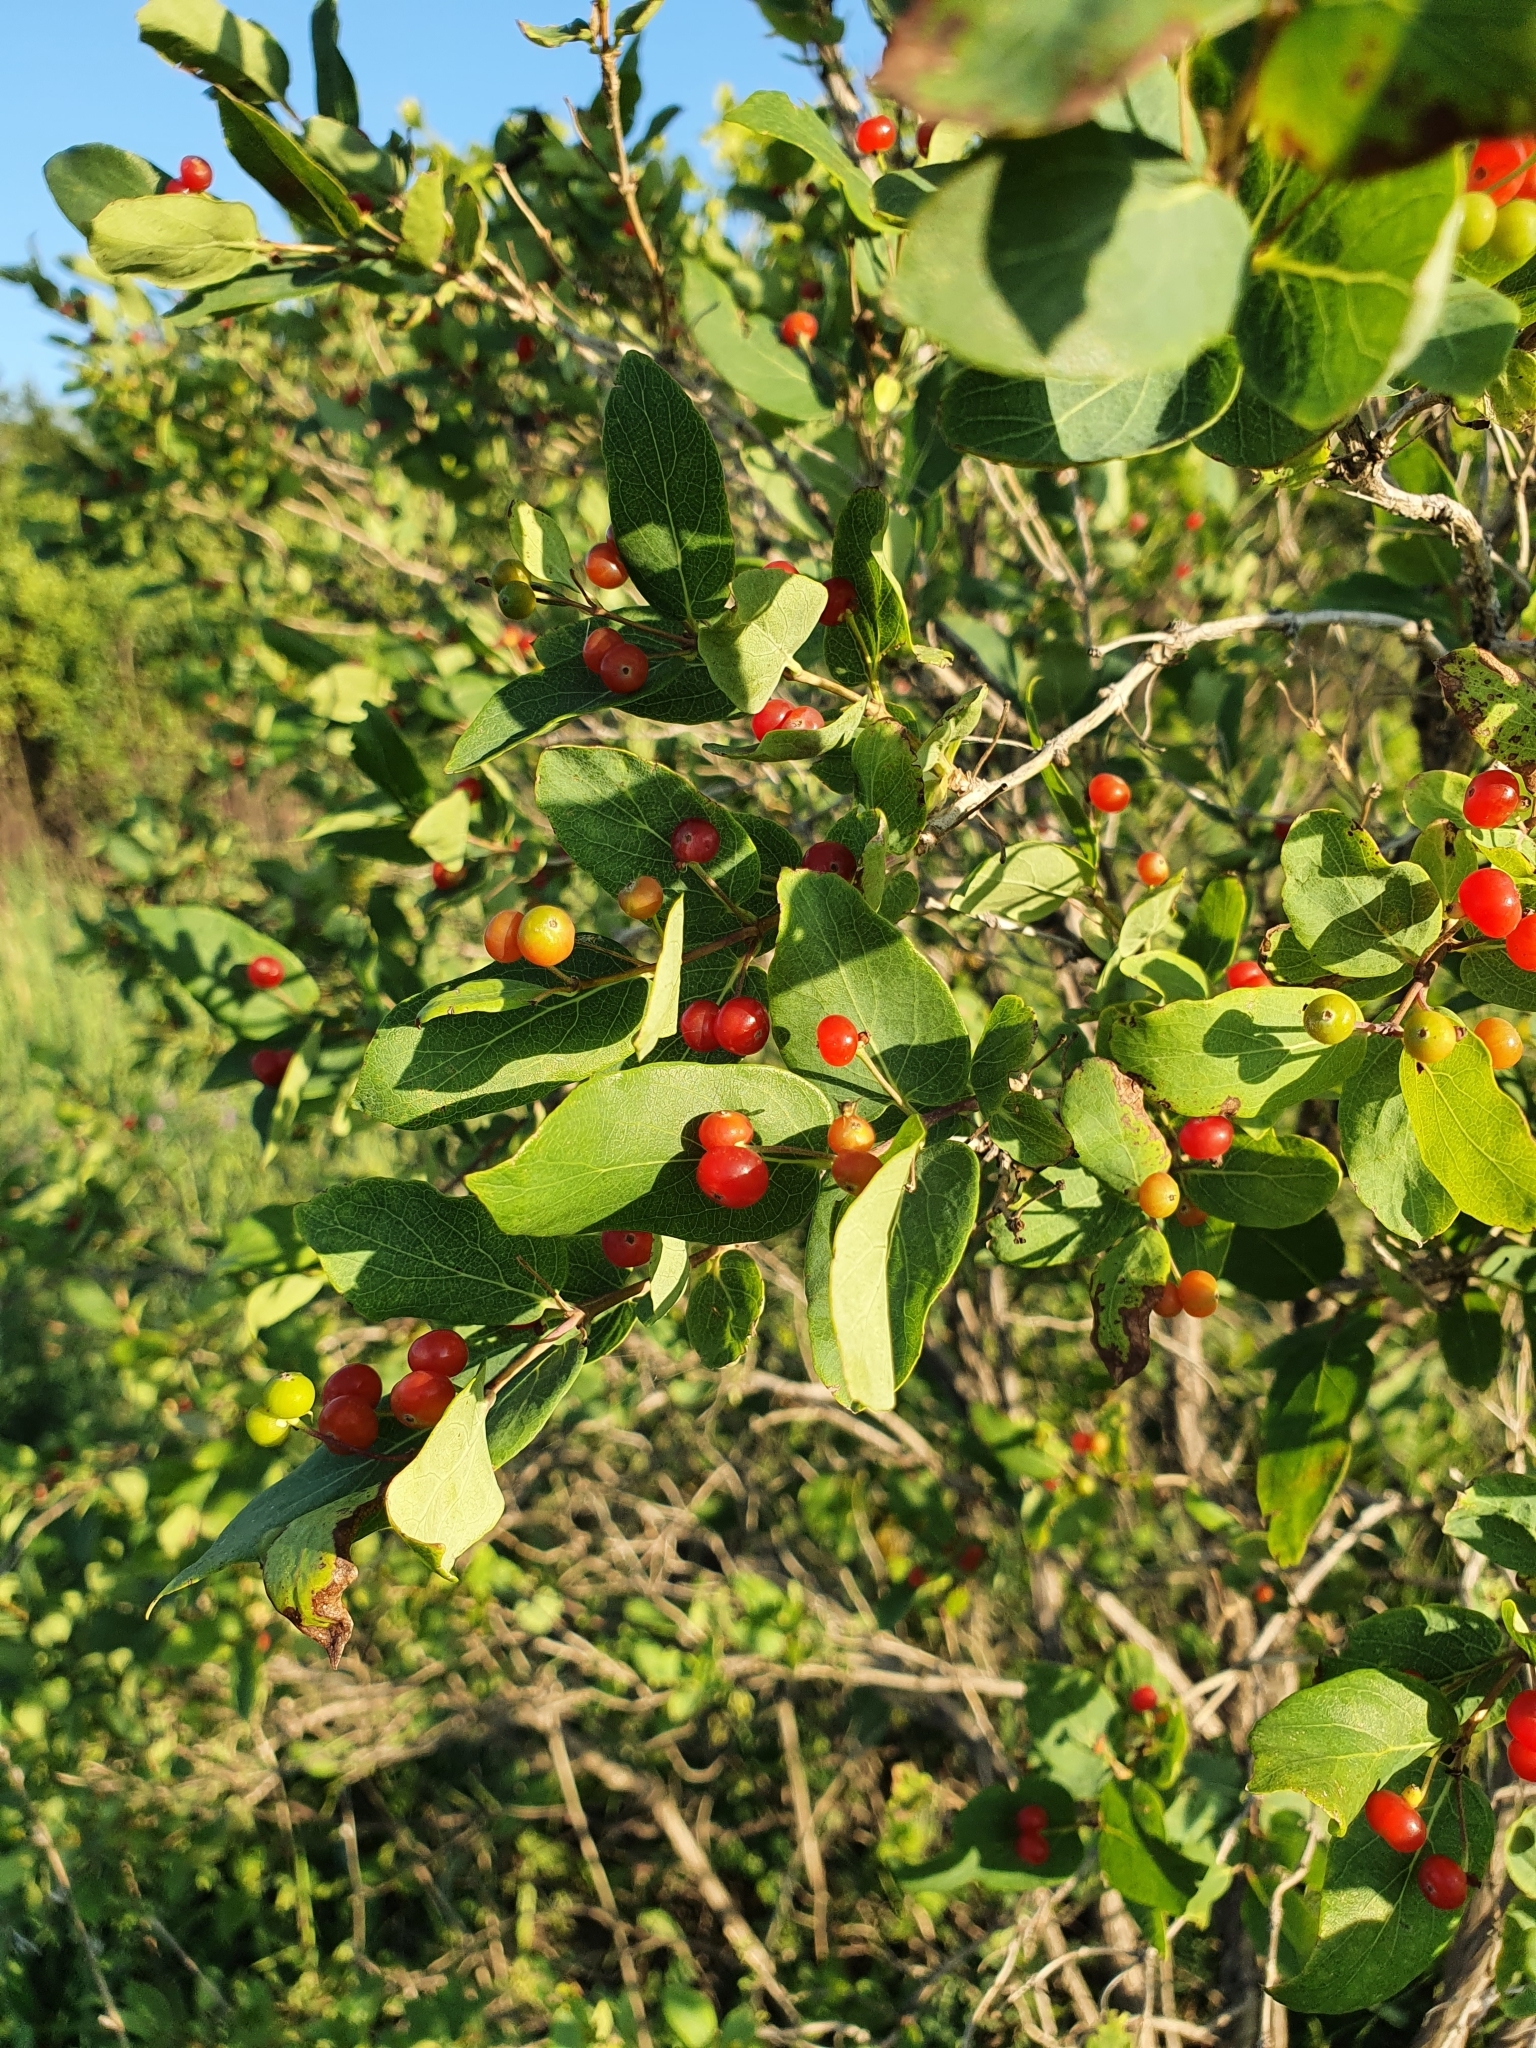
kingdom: Plantae
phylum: Tracheophyta
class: Magnoliopsida
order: Dipsacales
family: Caprifoliaceae
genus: Lonicera
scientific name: Lonicera tatarica
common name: Tatarian honeysuckle
